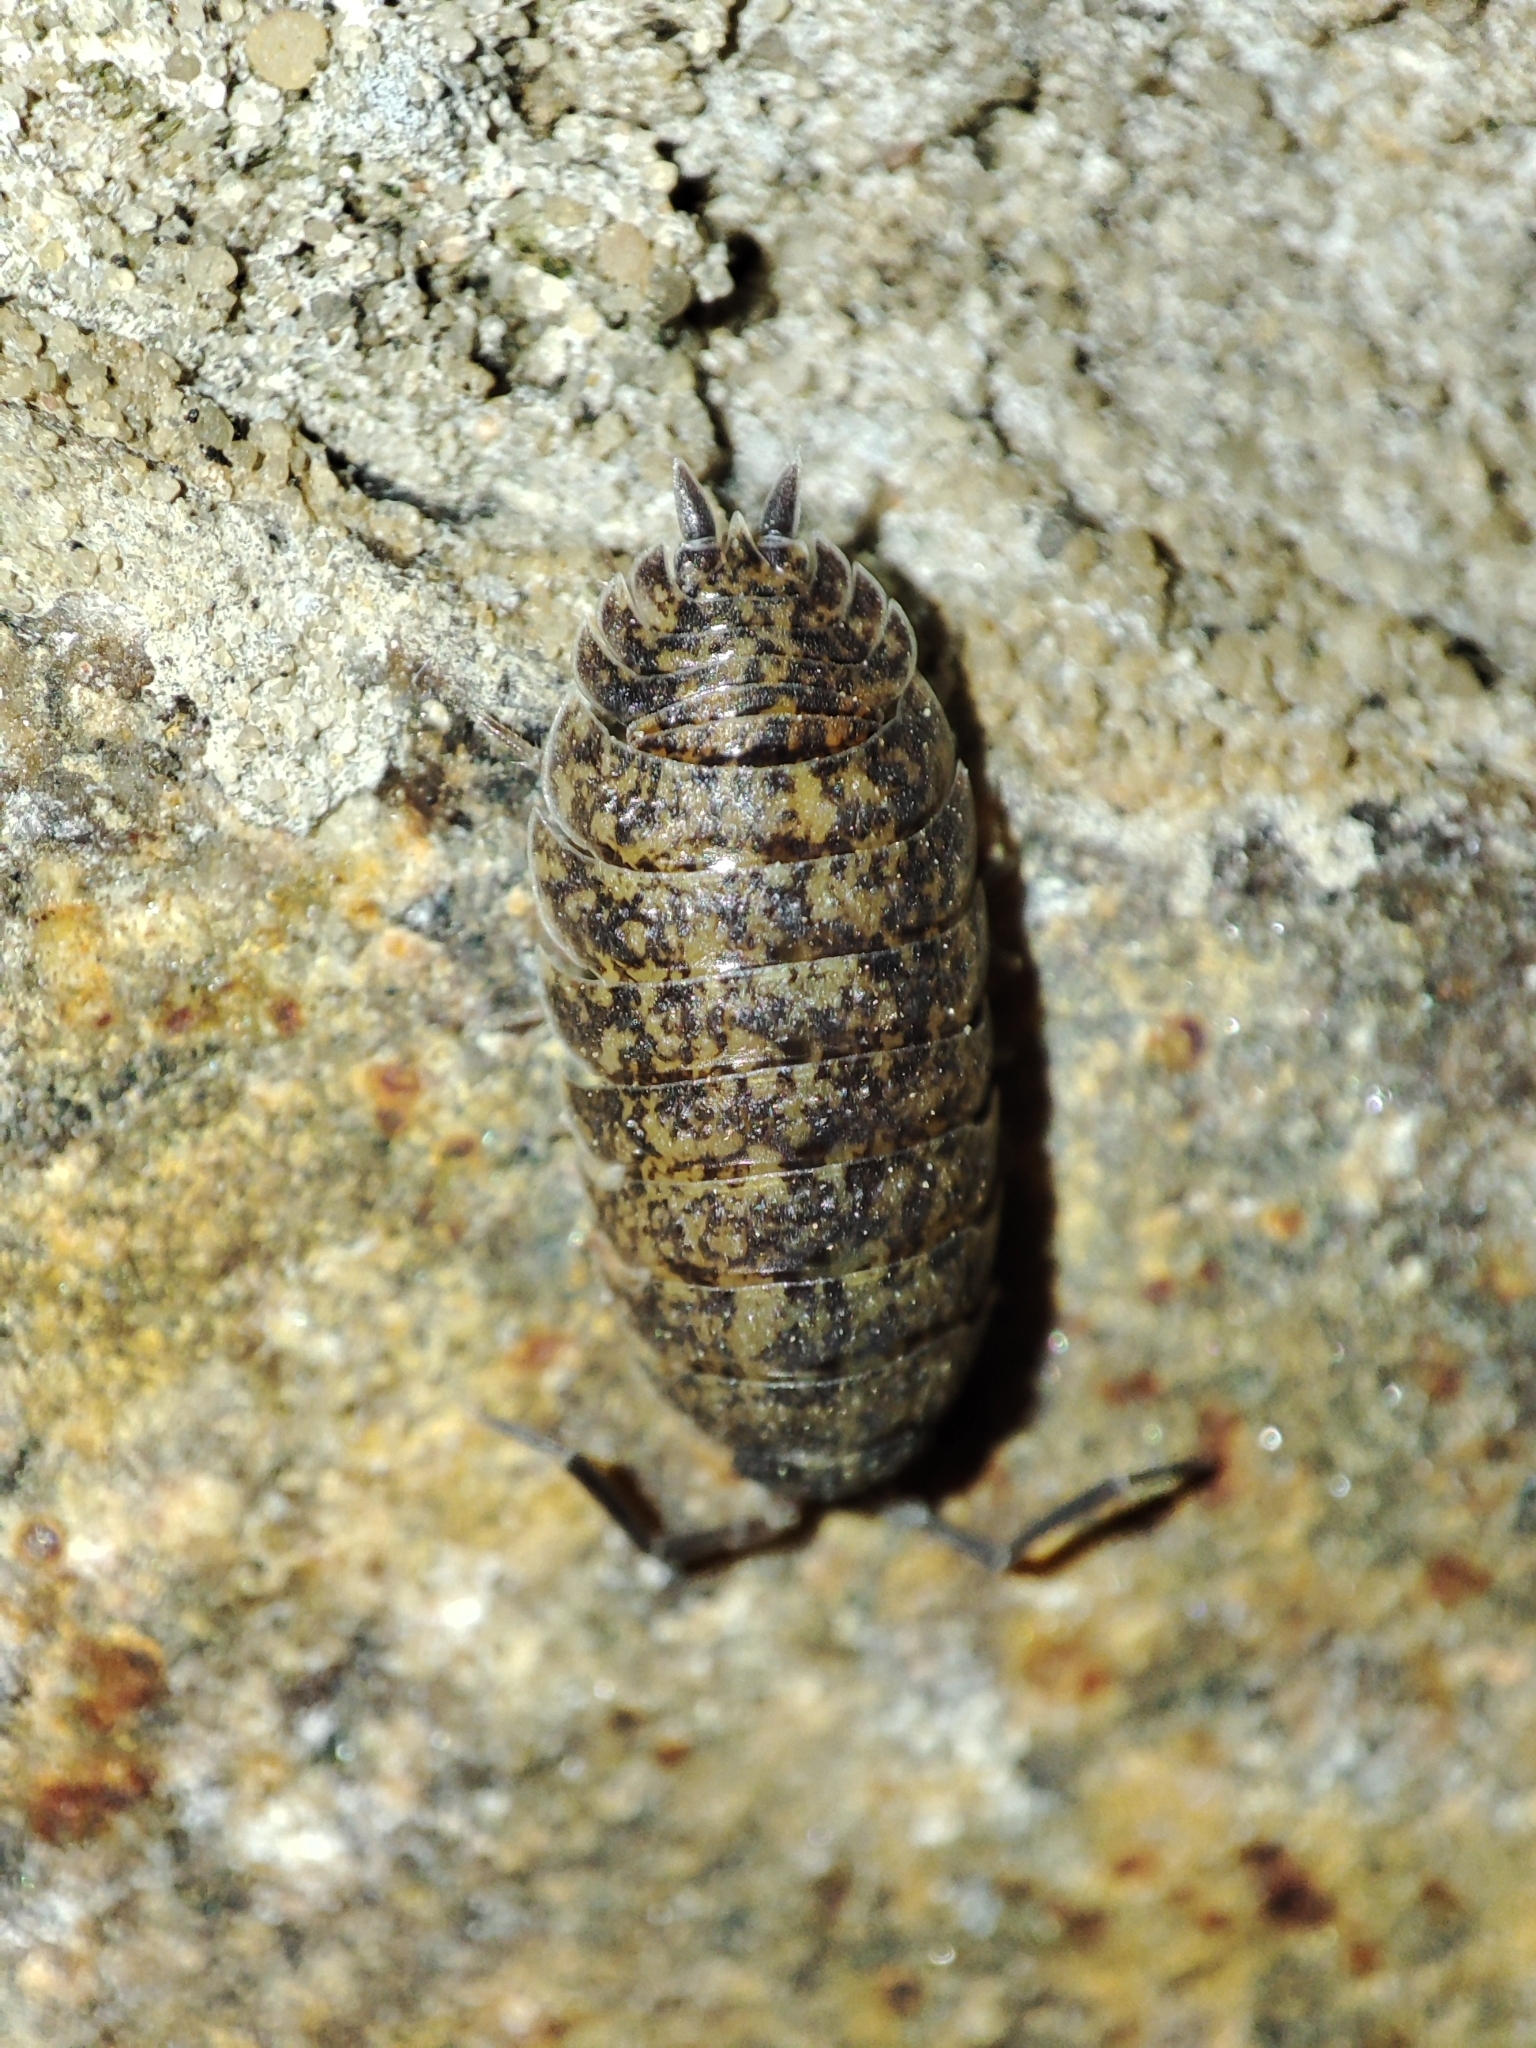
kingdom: Animalia
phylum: Arthropoda
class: Malacostraca
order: Isopoda
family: Porcellionidae
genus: Porcellio
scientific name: Porcellio scaber
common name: Common rough woodlouse
